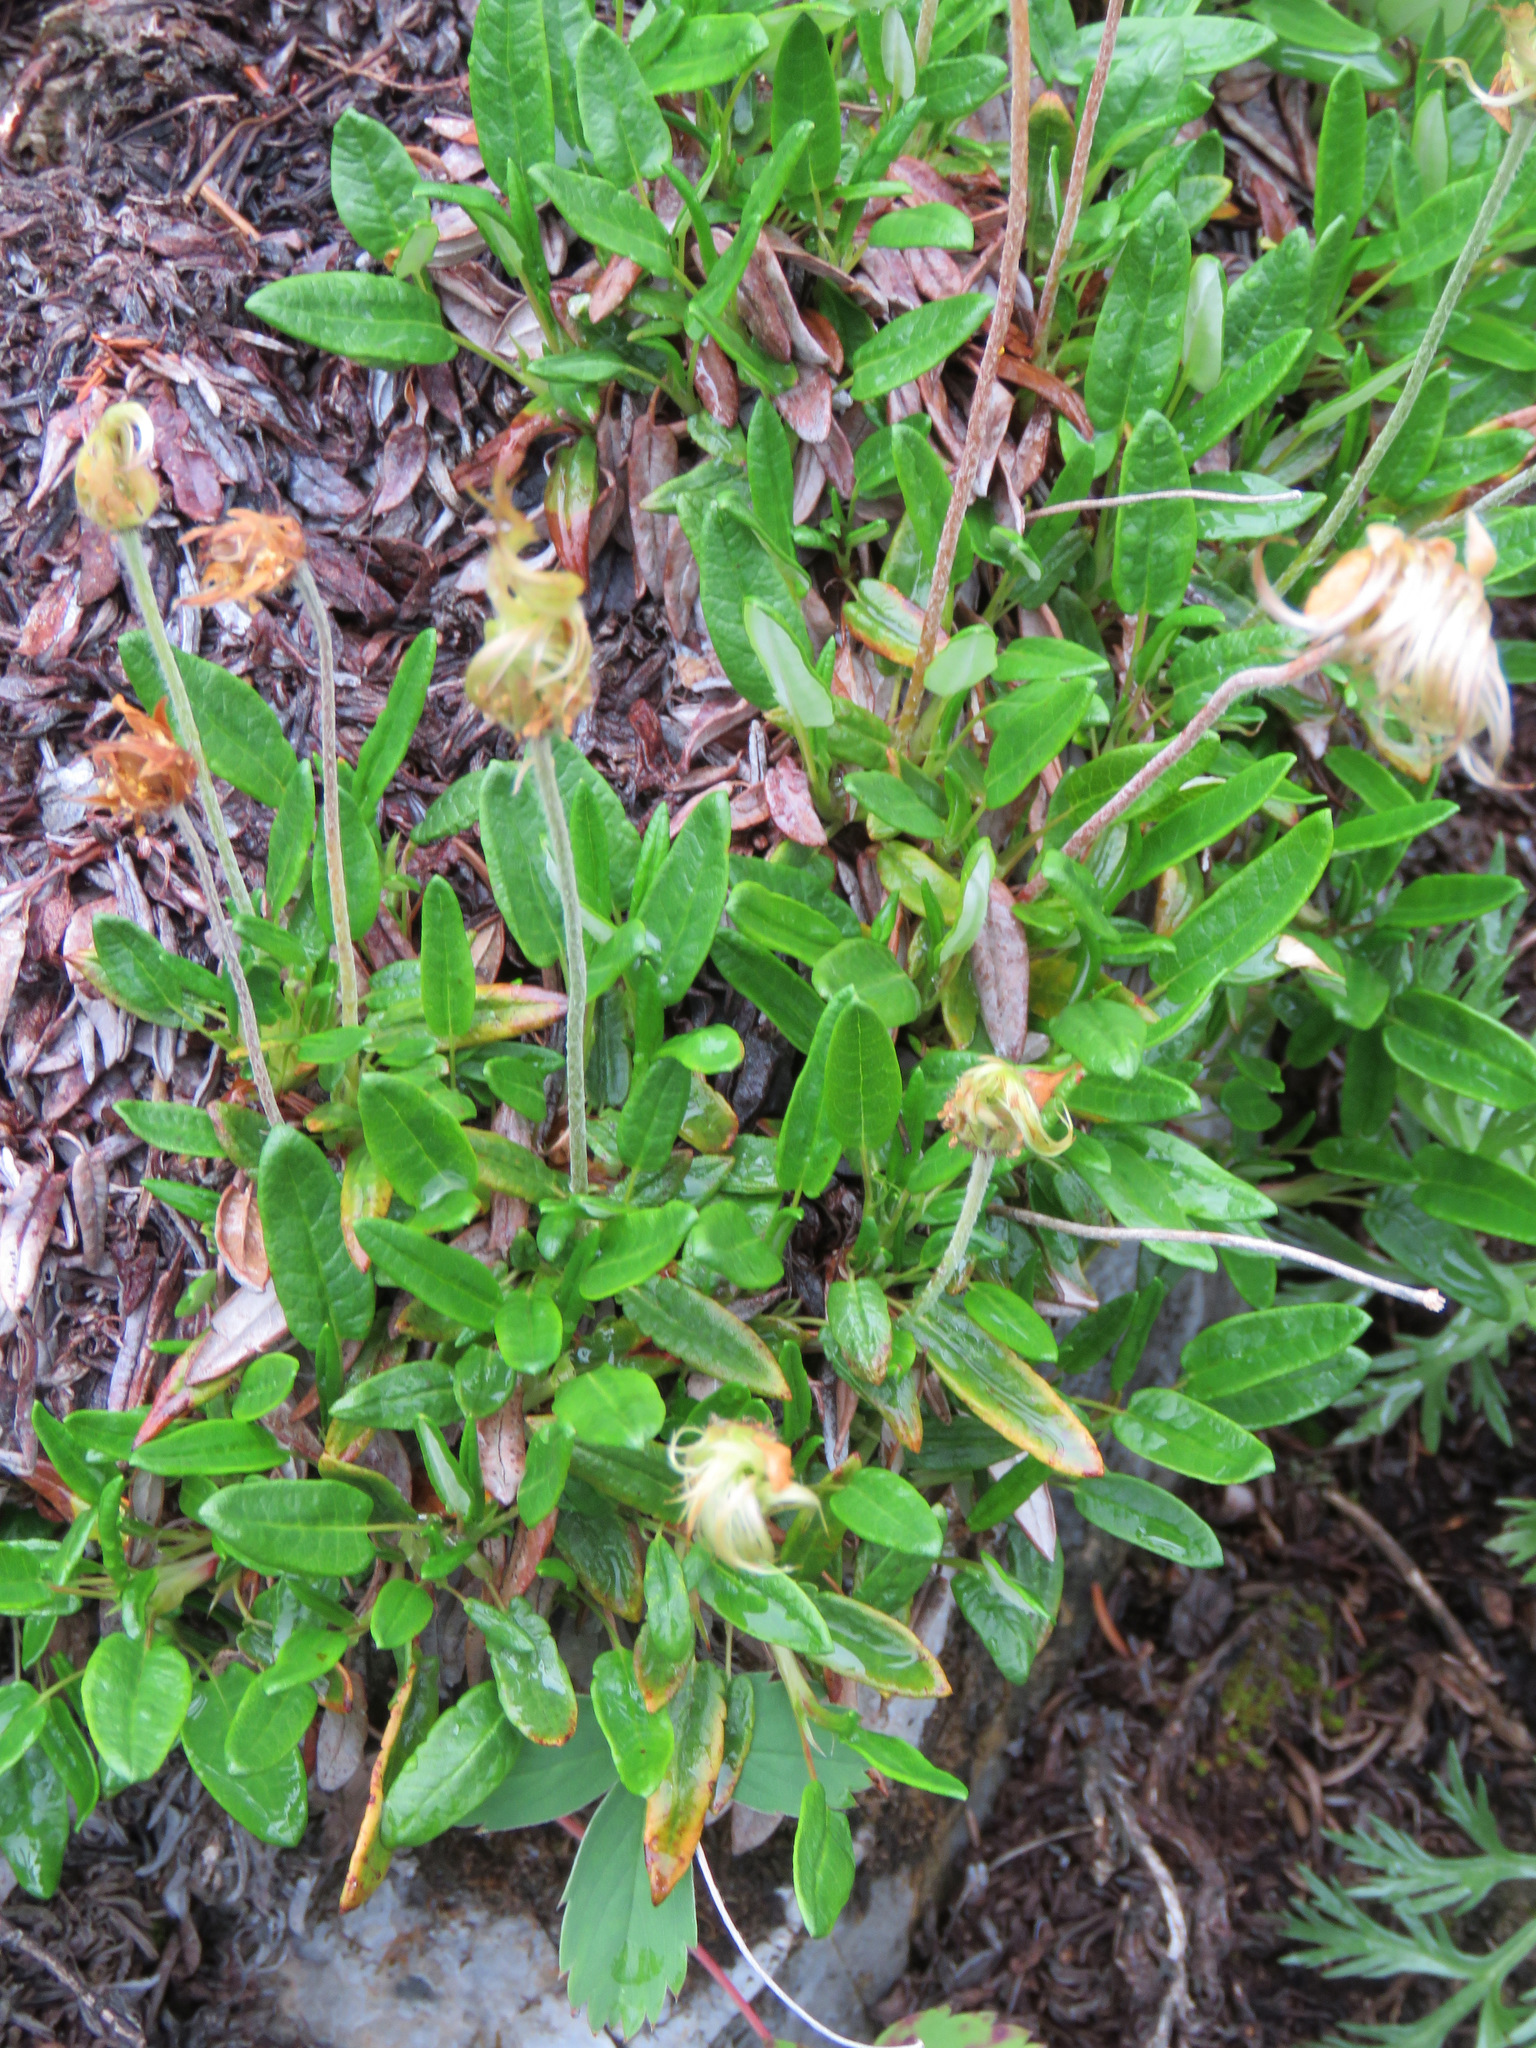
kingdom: Plantae
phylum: Tracheophyta
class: Magnoliopsida
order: Rosales
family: Rosaceae
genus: Dryas
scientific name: Dryas integrifolia
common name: Entire-leaved mountain avens
